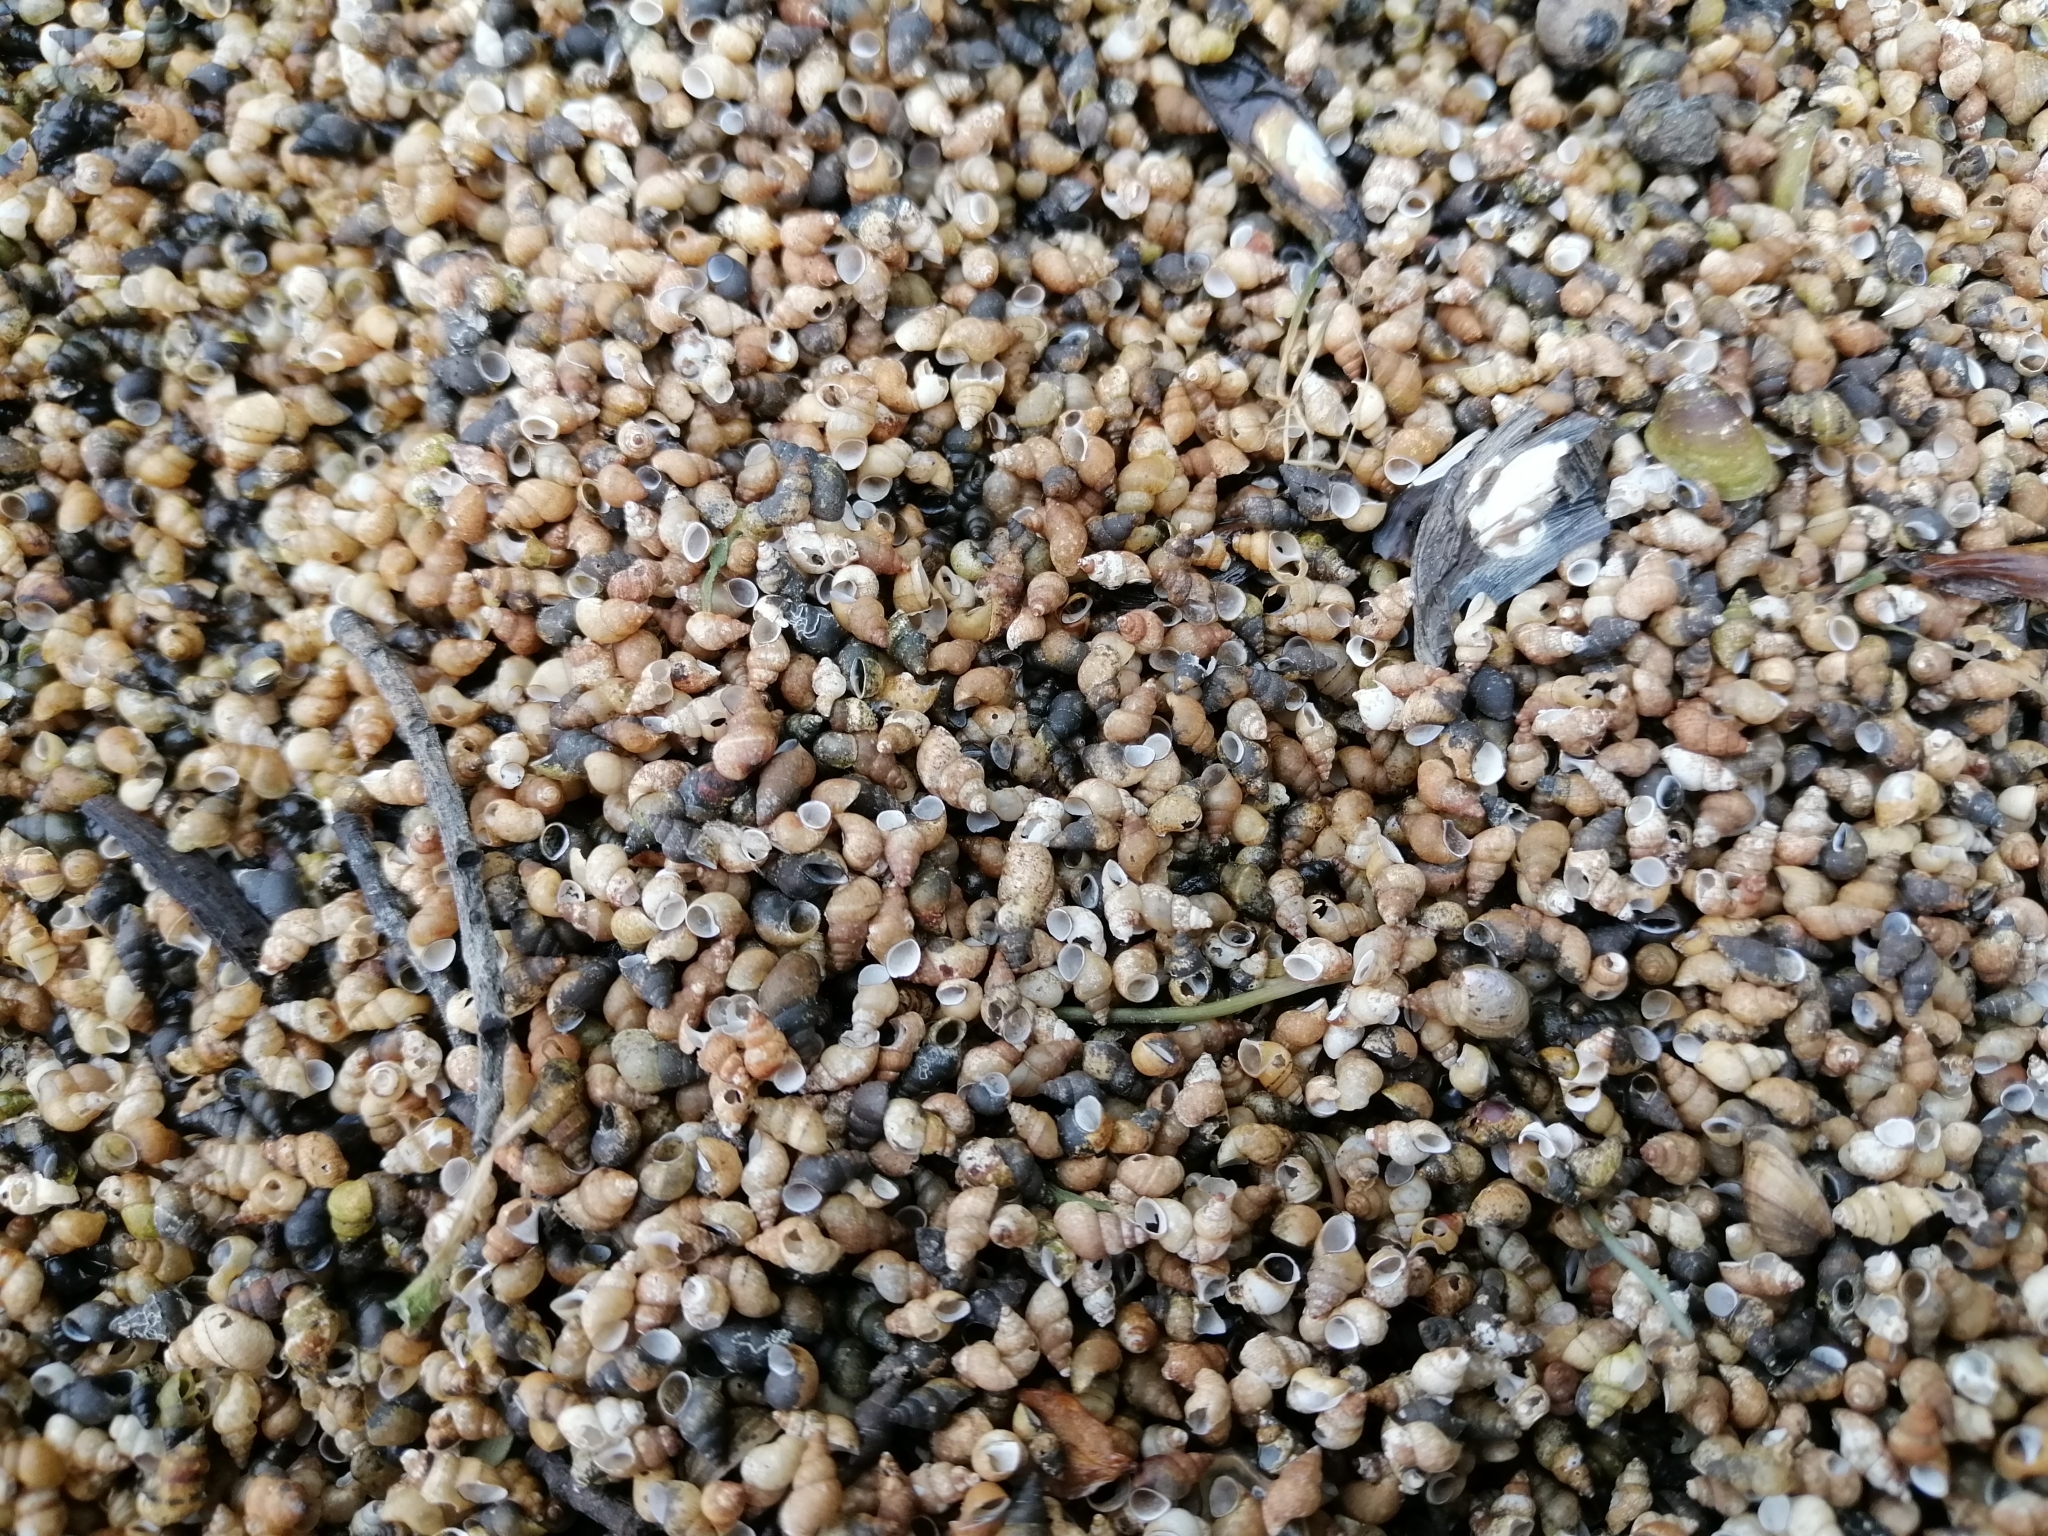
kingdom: Animalia
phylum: Mollusca
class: Gastropoda
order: Littorinimorpha
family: Tateidae
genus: Potamopyrgus
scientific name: Potamopyrgus antipodarum
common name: Jenkins' spire snail
